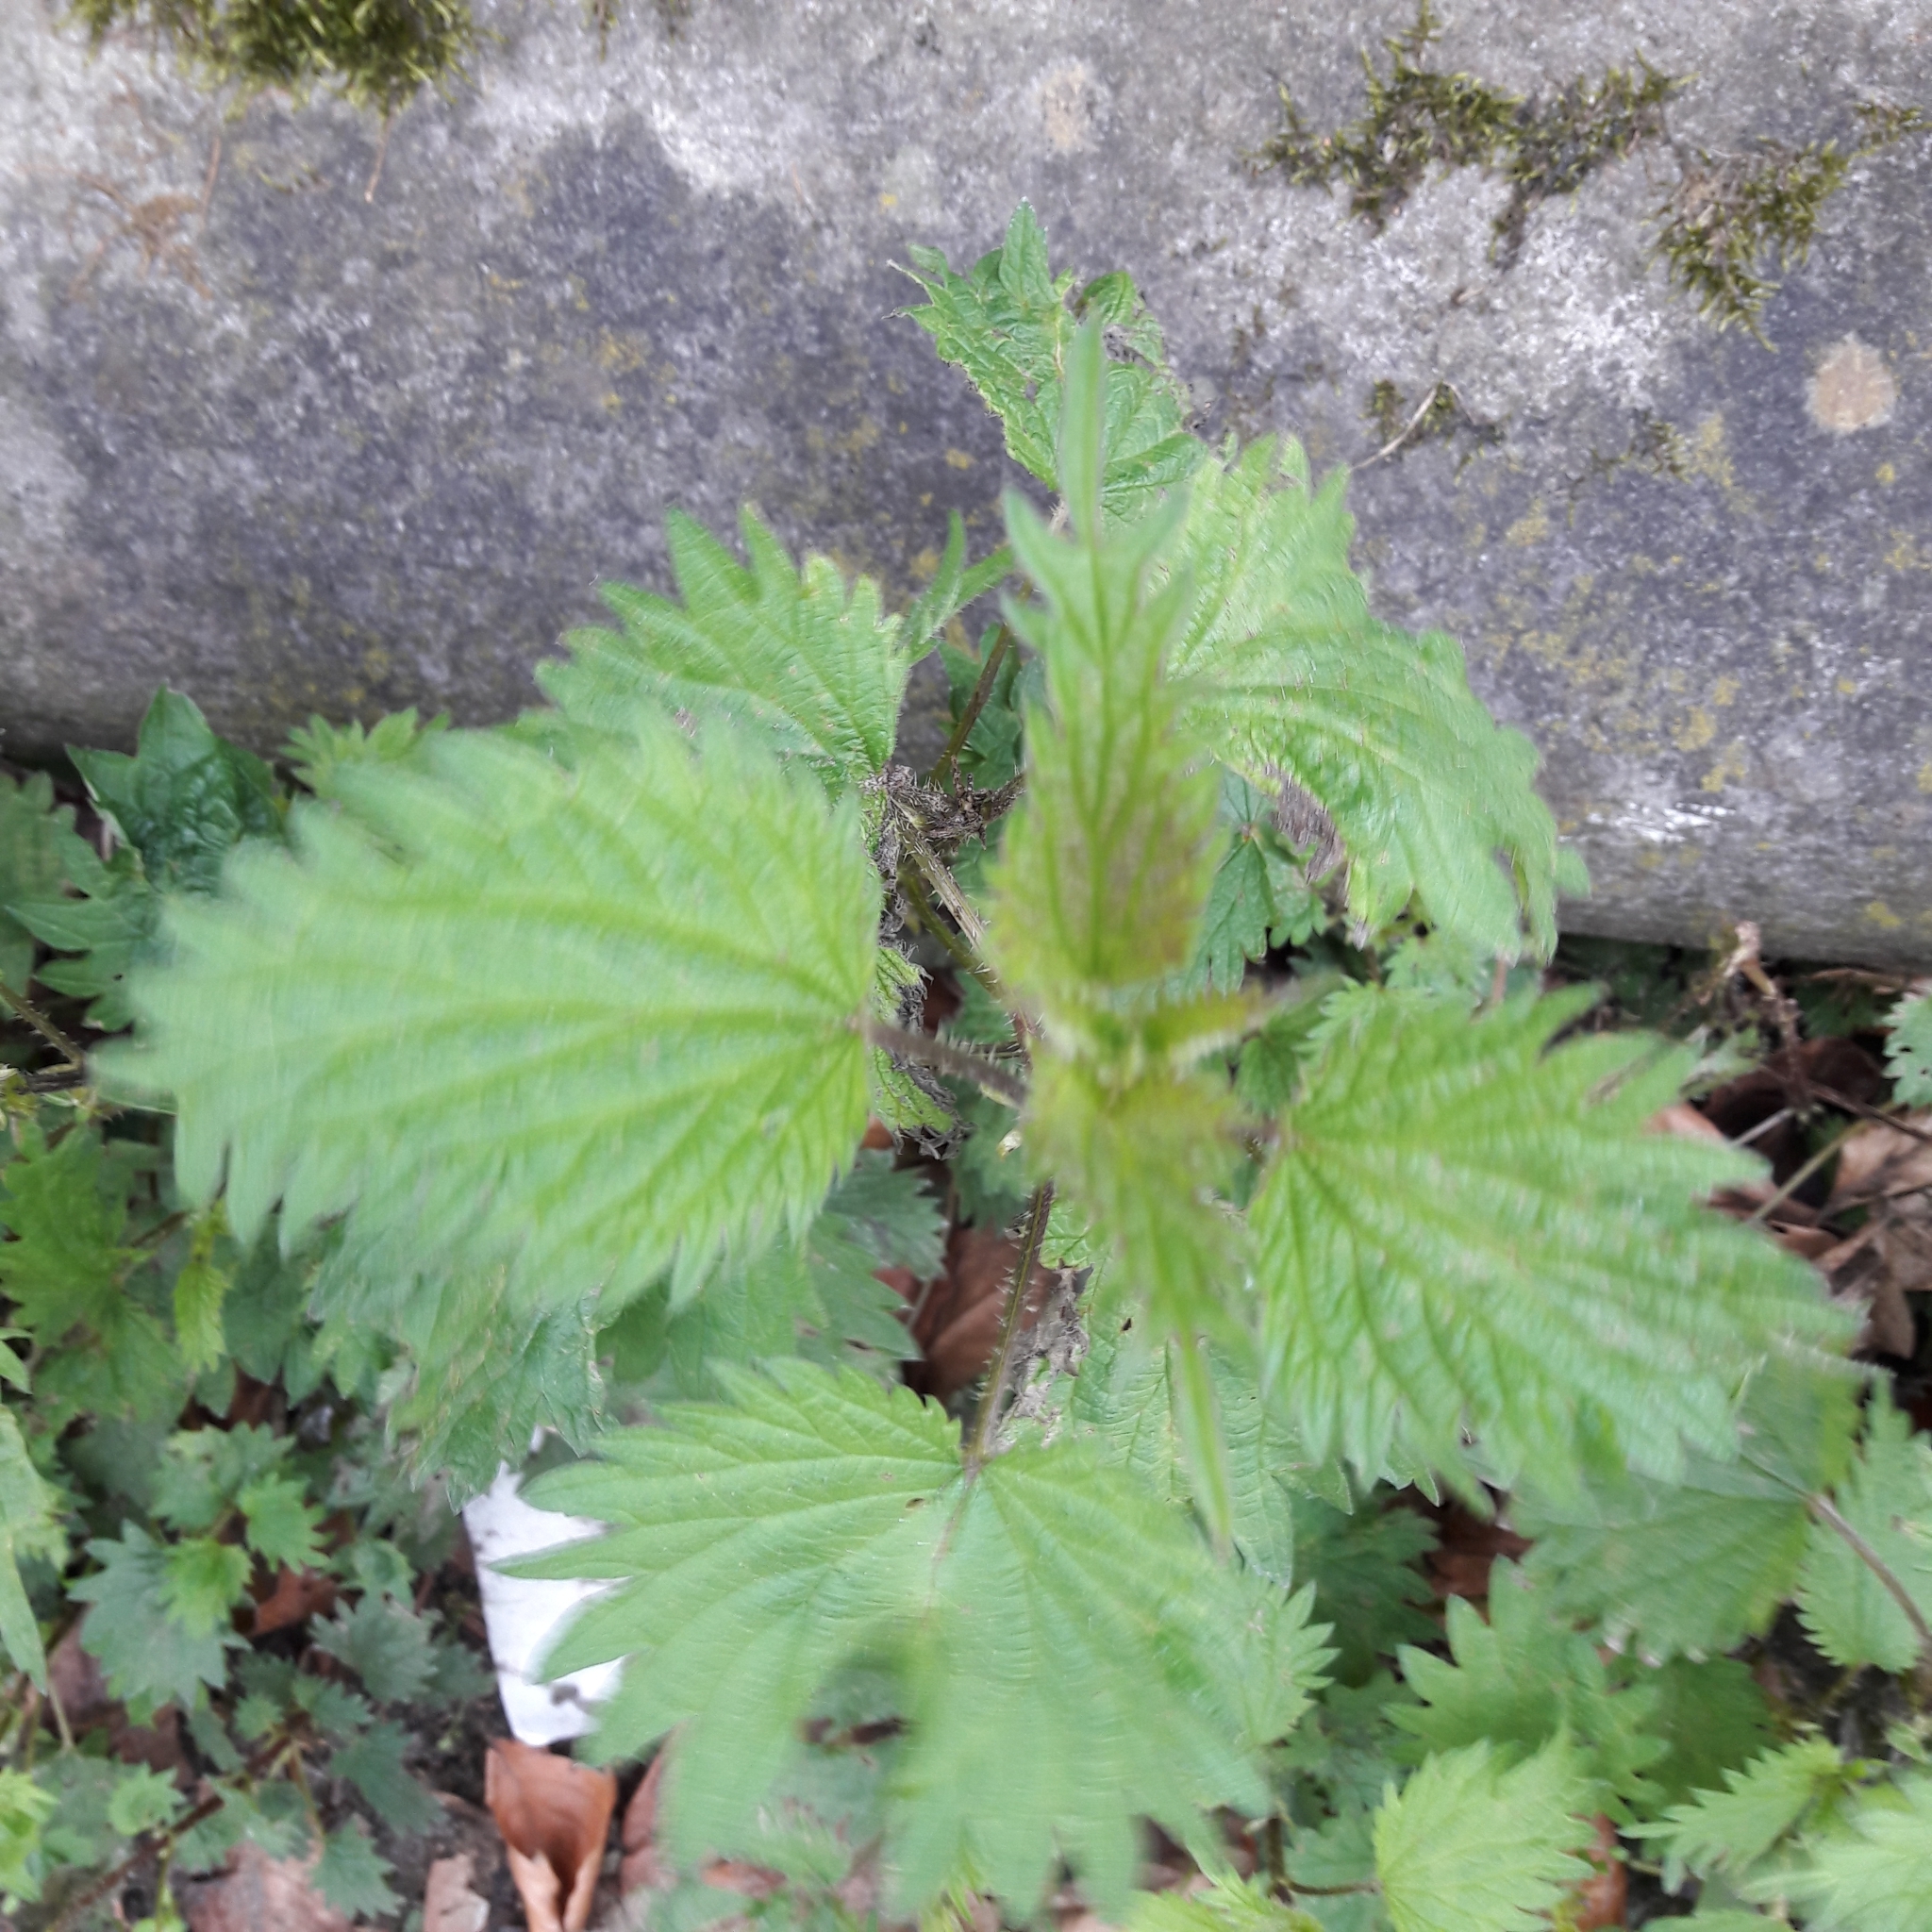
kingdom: Plantae
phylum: Tracheophyta
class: Magnoliopsida
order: Rosales
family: Urticaceae
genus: Urtica
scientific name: Urtica dioica
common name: Common nettle
